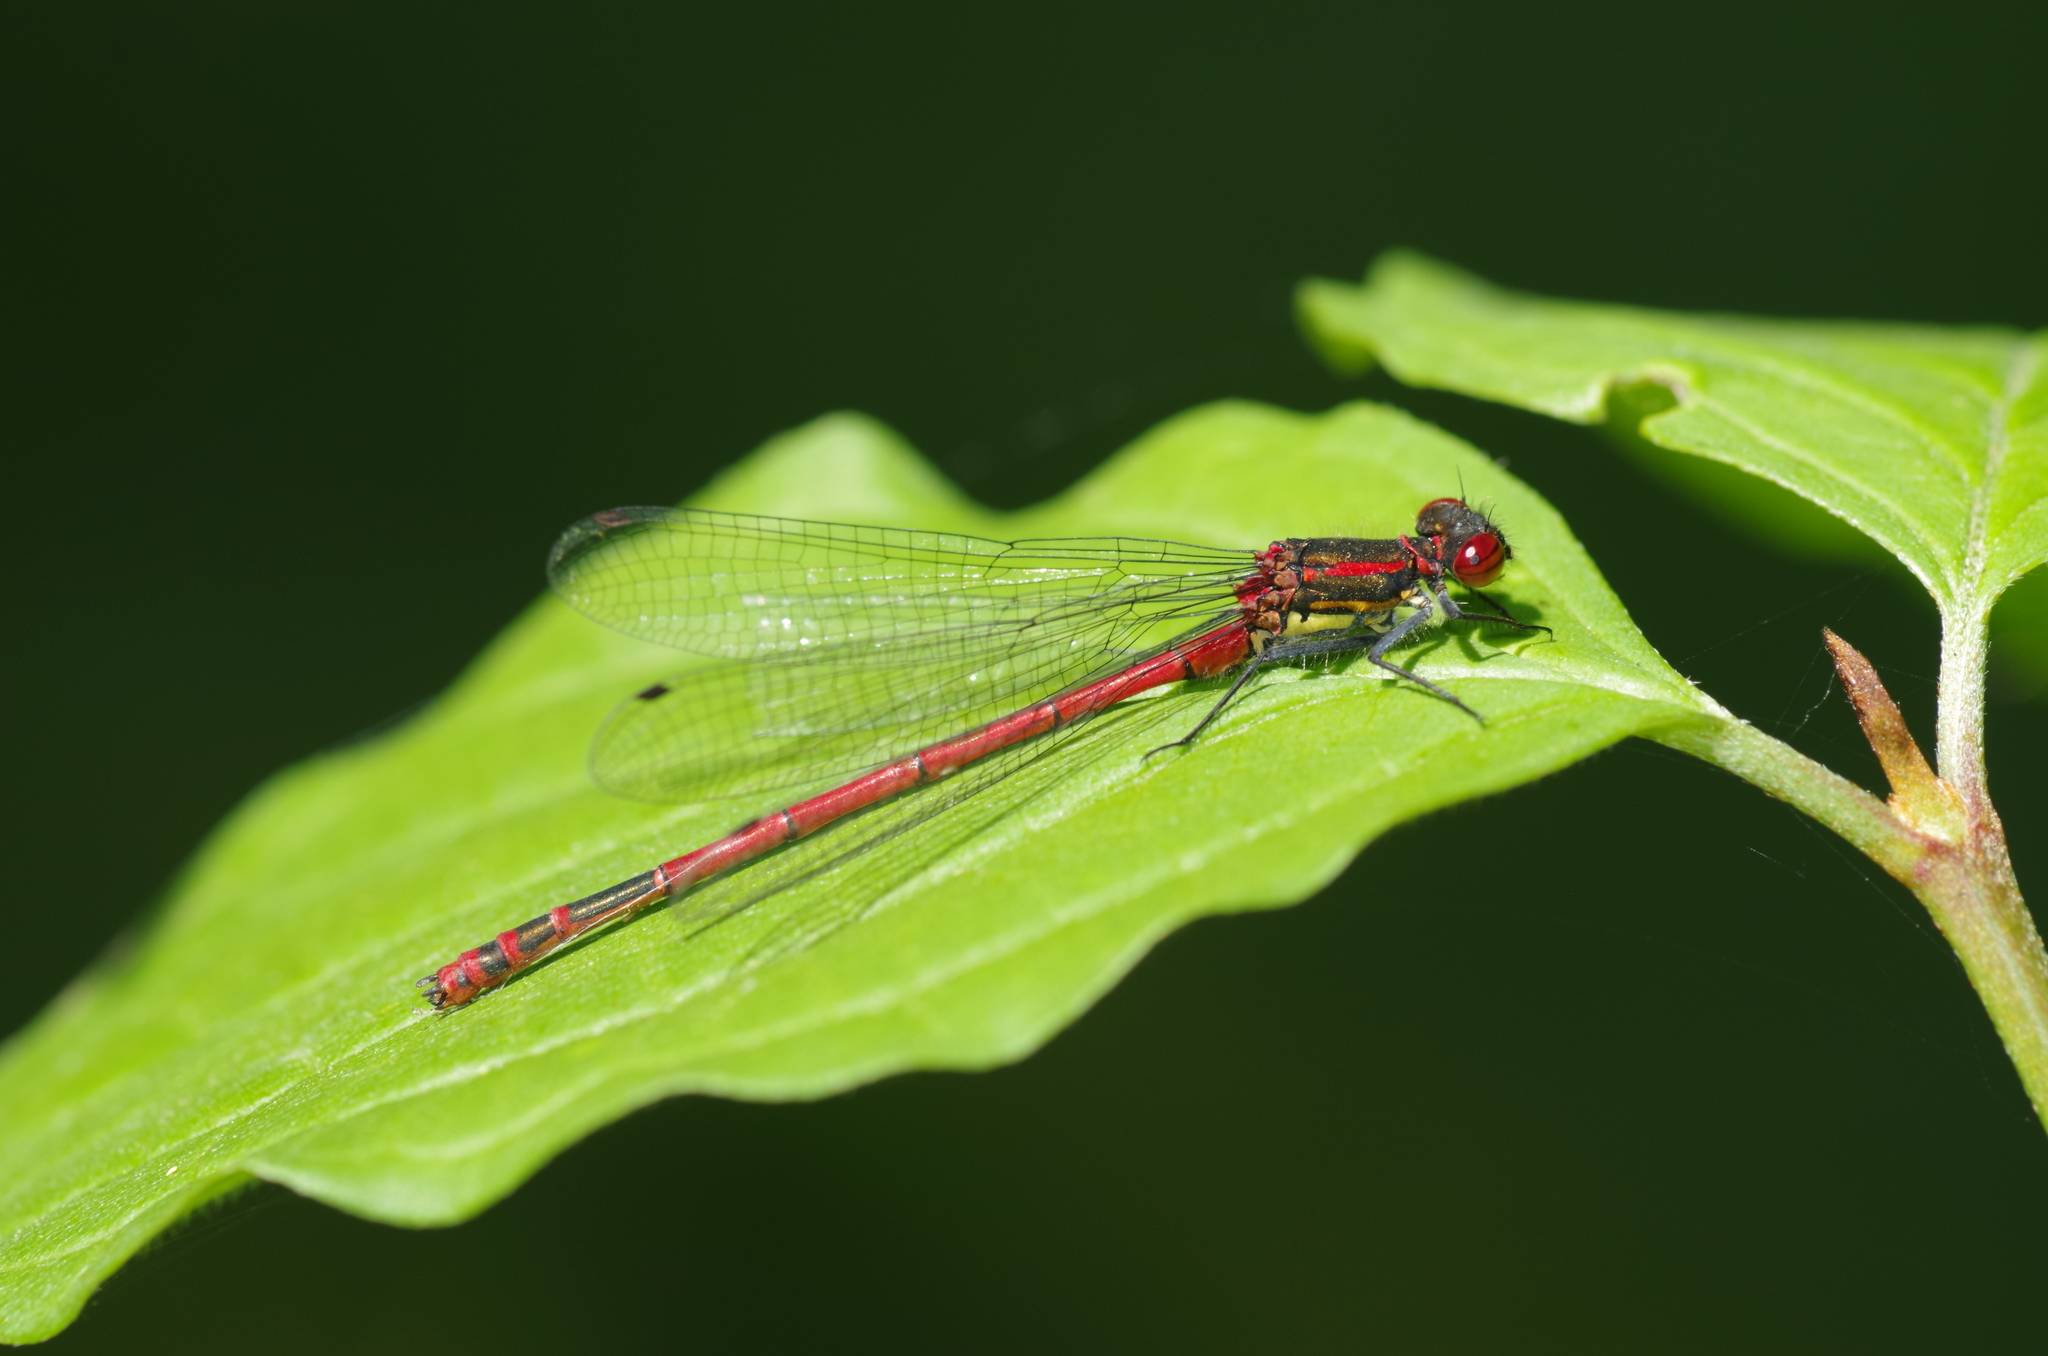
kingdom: Animalia
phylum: Arthropoda
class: Insecta
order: Odonata
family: Coenagrionidae
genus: Pyrrhosoma
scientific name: Pyrrhosoma nymphula
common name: Large red damsel
